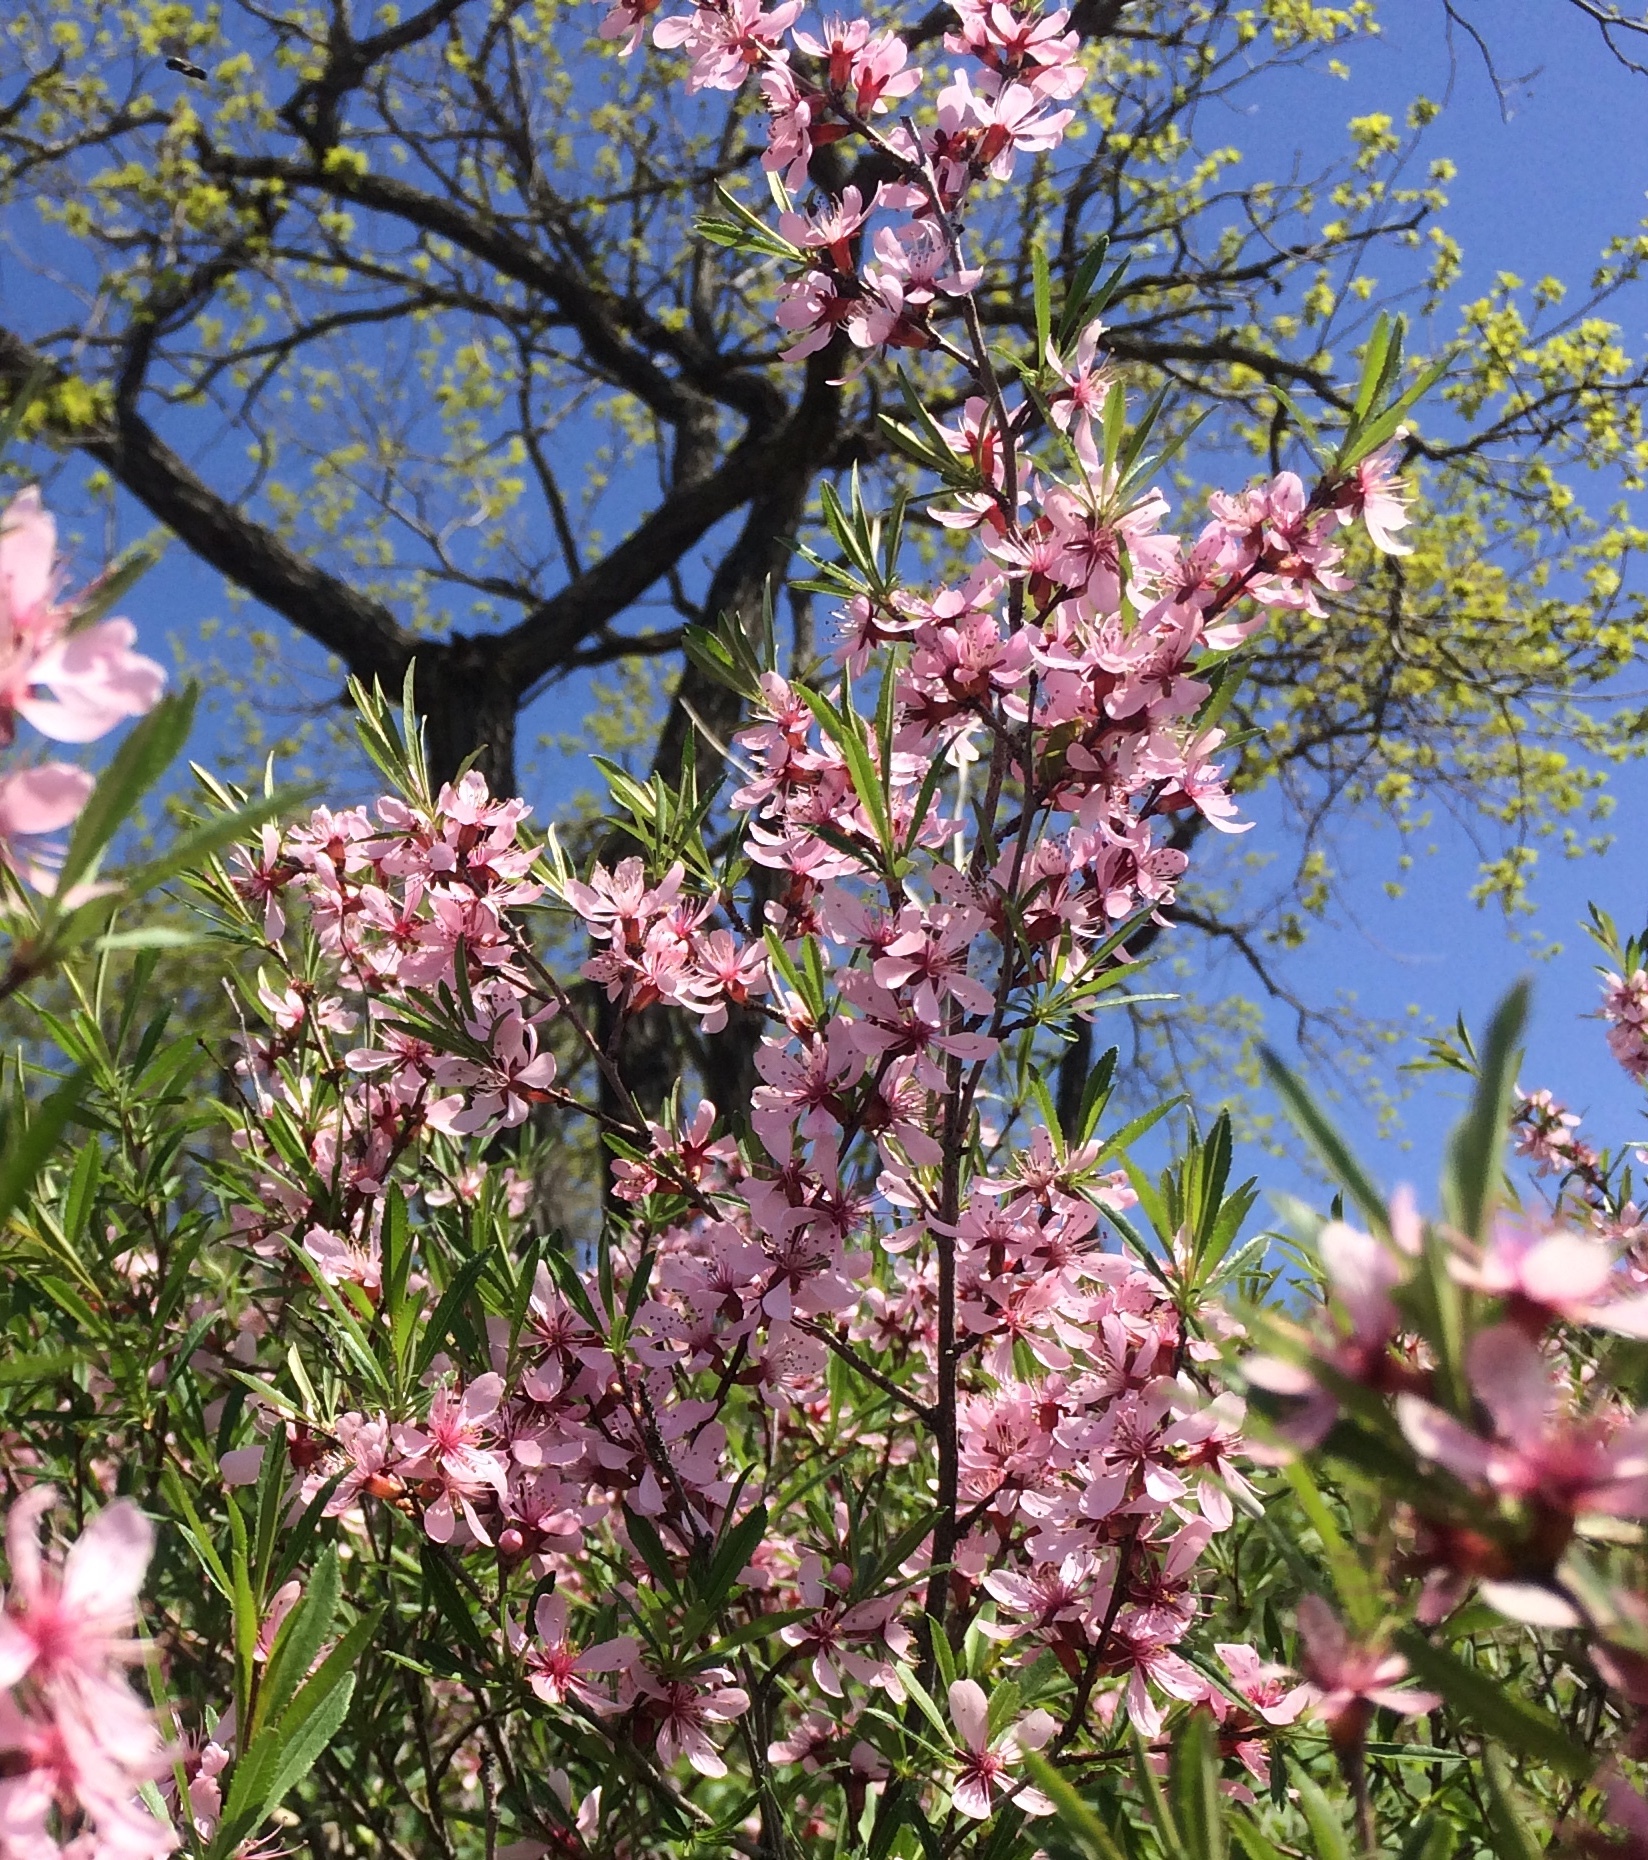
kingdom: Plantae
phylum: Tracheophyta
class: Magnoliopsida
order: Rosales
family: Rosaceae
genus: Prunus
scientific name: Prunus tenella
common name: Dwarf russian almond
